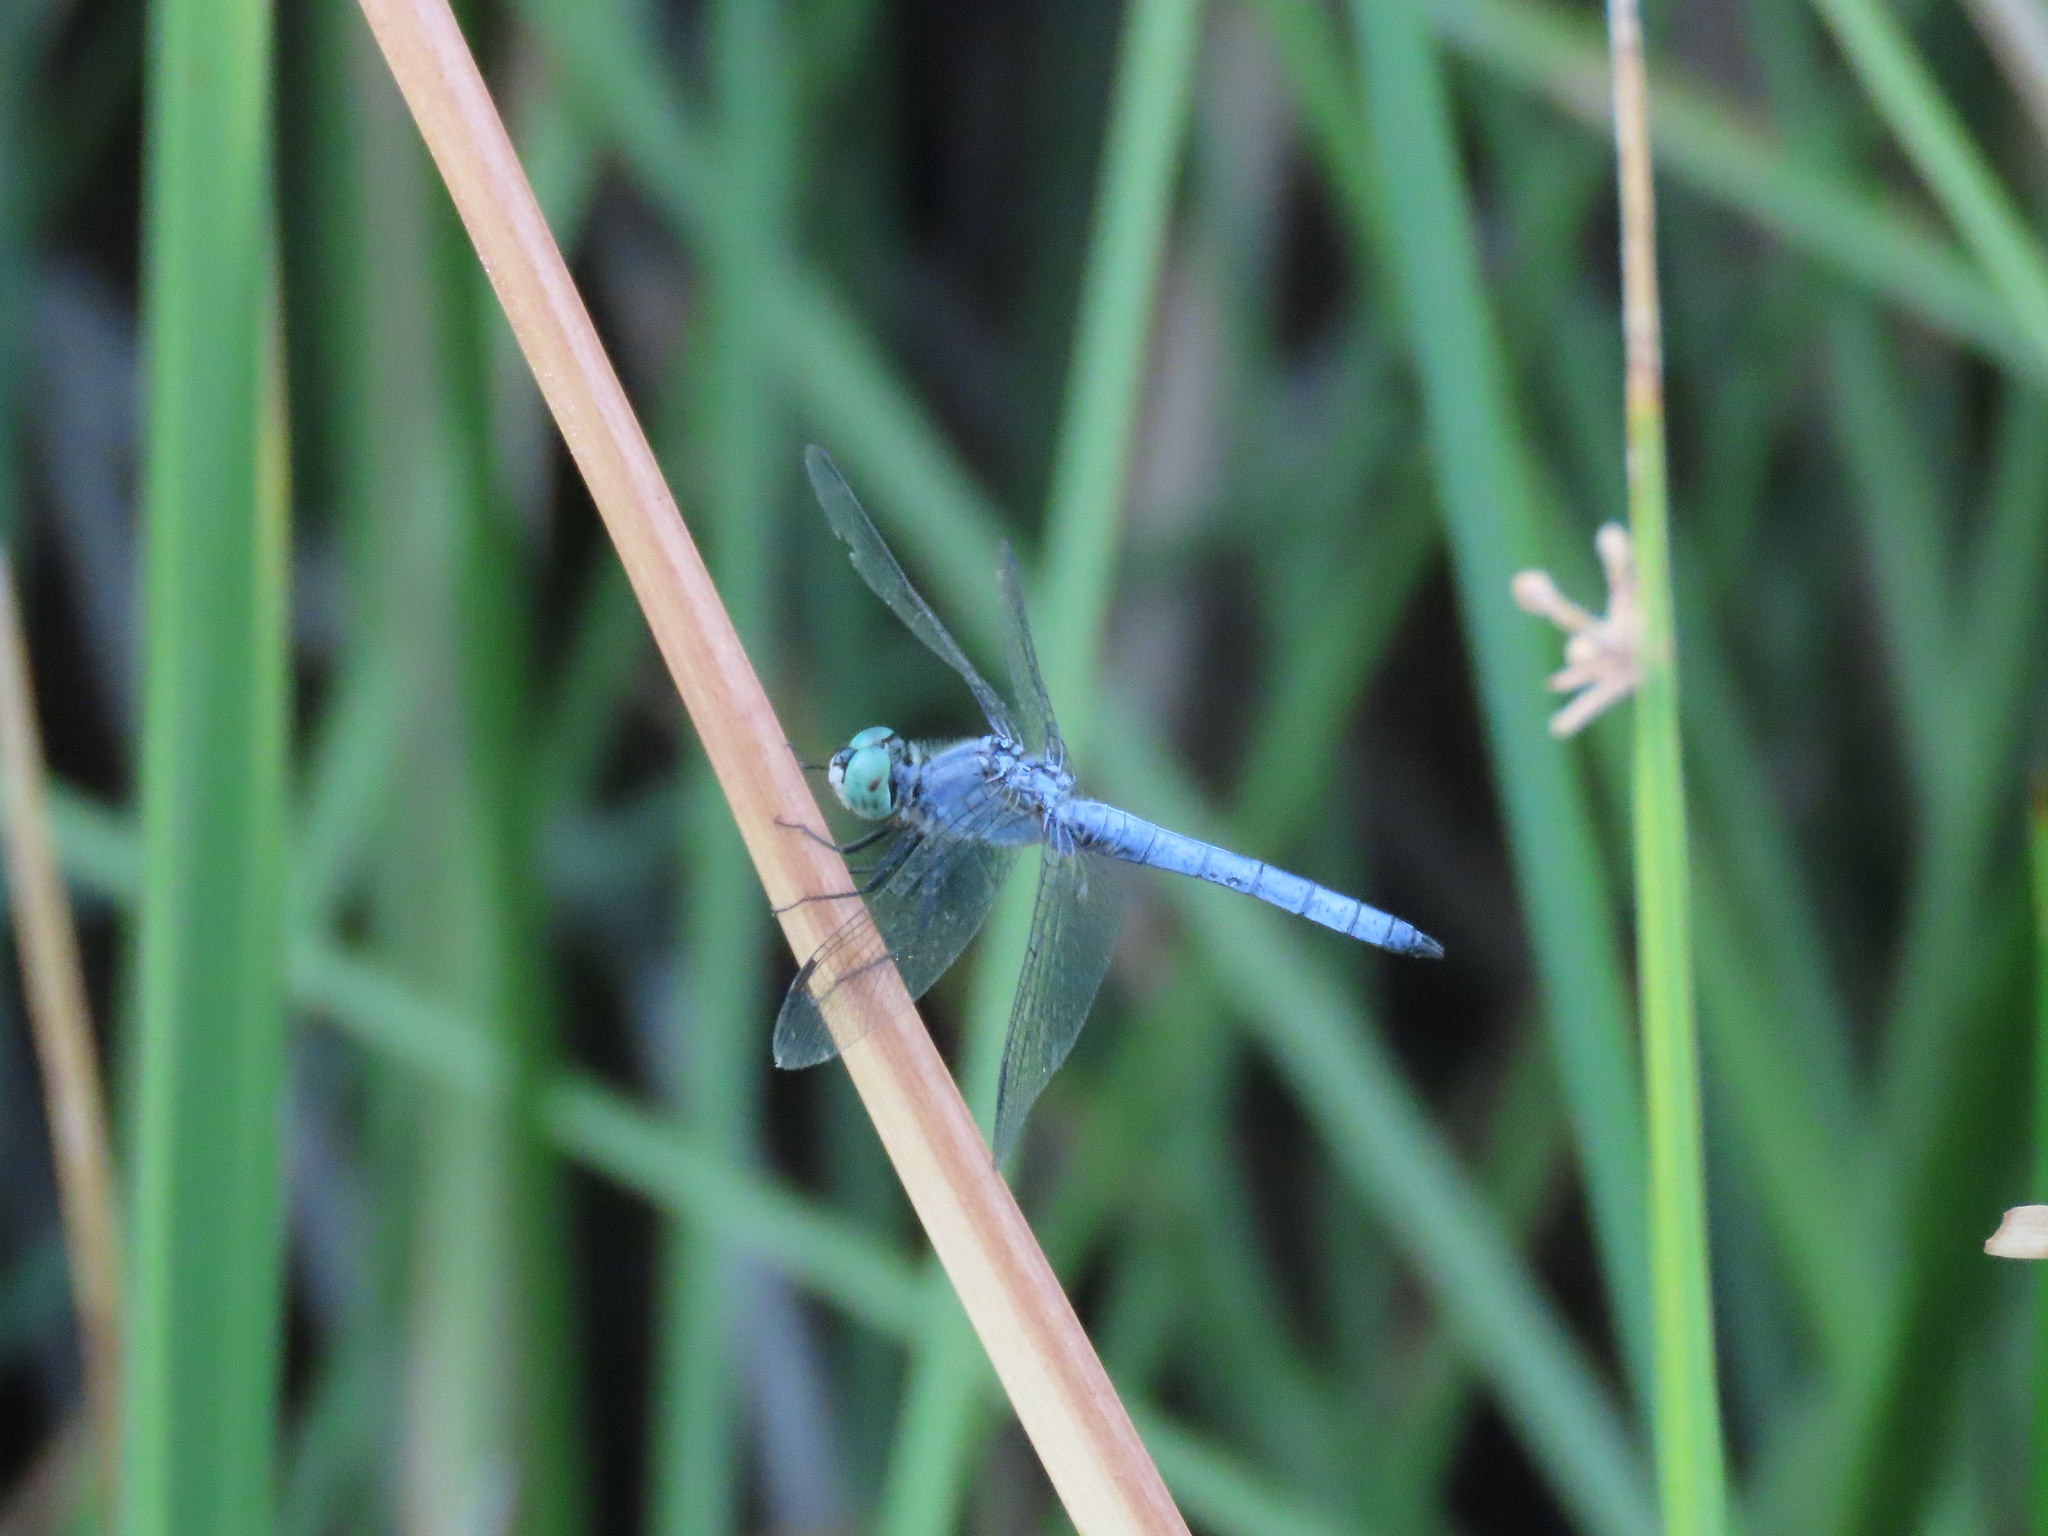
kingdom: Animalia
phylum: Arthropoda
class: Insecta
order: Odonata
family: Libellulidae
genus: Pachydiplax
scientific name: Pachydiplax longipennis
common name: Blue dasher
